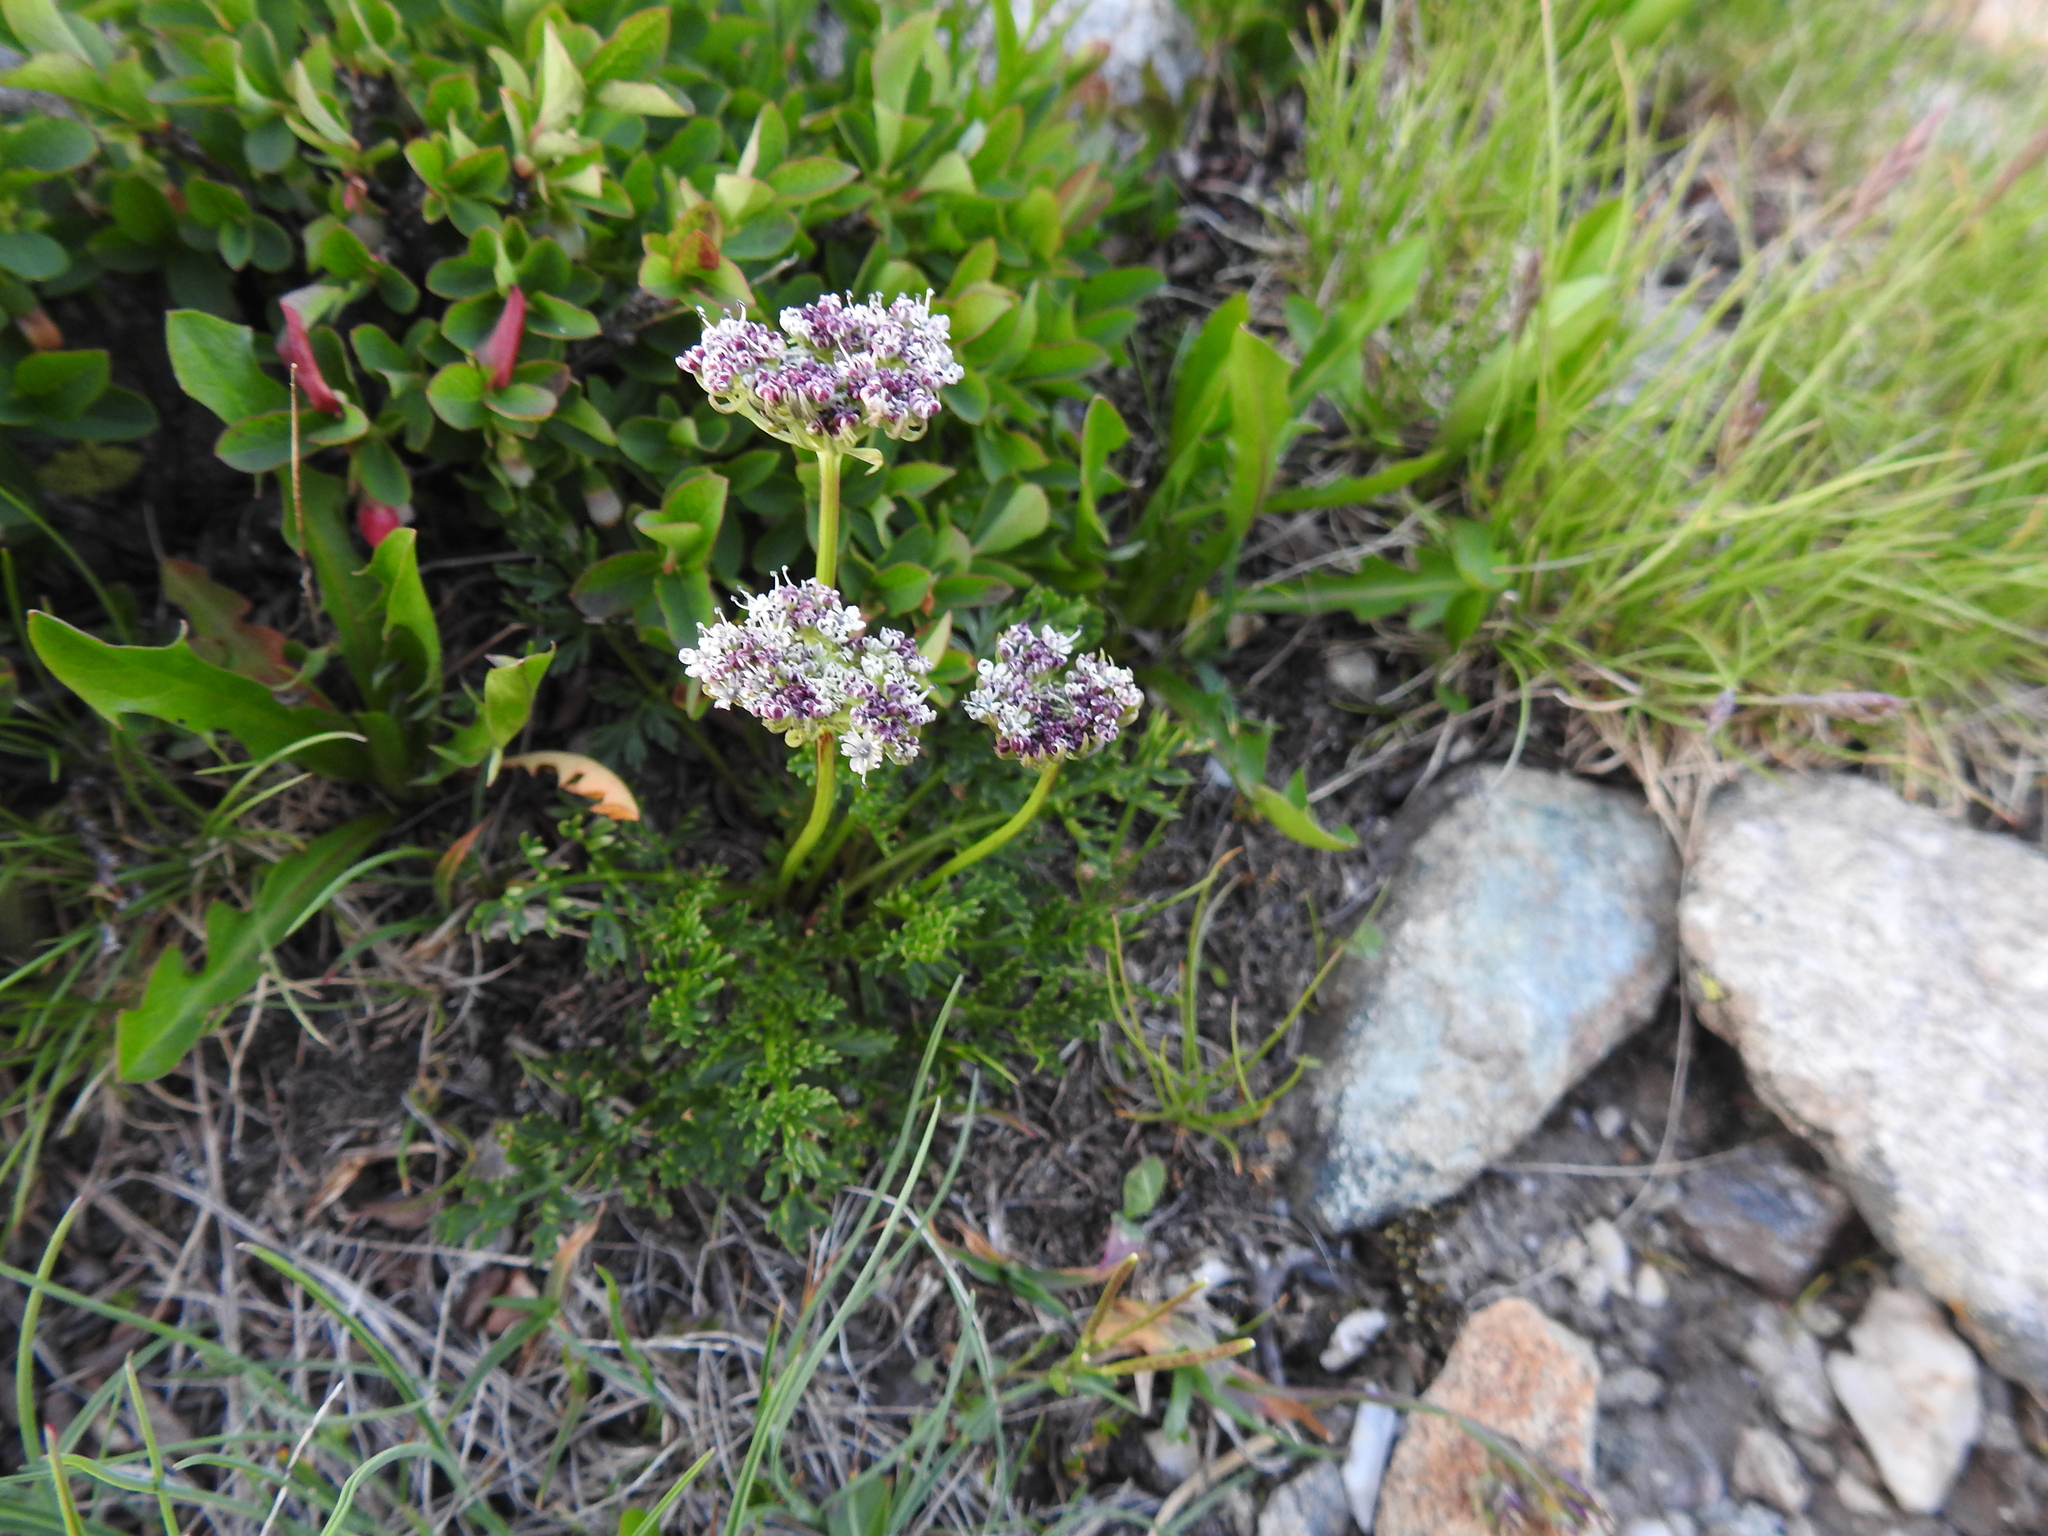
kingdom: Plantae
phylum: Tracheophyta
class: Magnoliopsida
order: Apiales
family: Apiaceae
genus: Pachypleurum
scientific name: Pachypleurum mutellinoides
